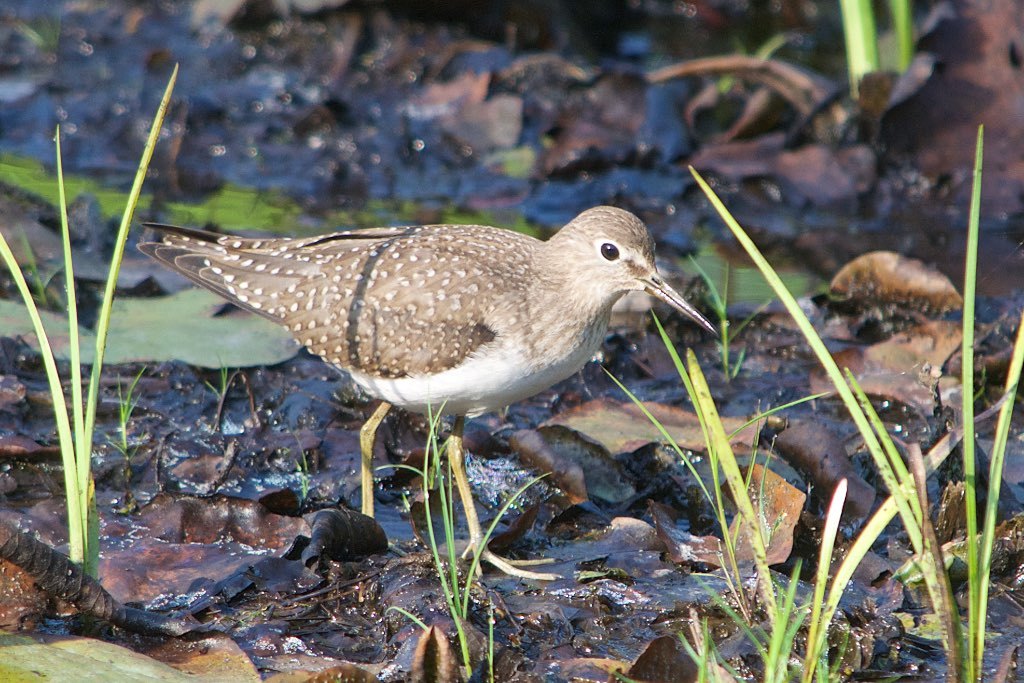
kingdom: Animalia
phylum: Chordata
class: Aves
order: Charadriiformes
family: Scolopacidae
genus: Tringa
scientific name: Tringa solitaria
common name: Solitary sandpiper
